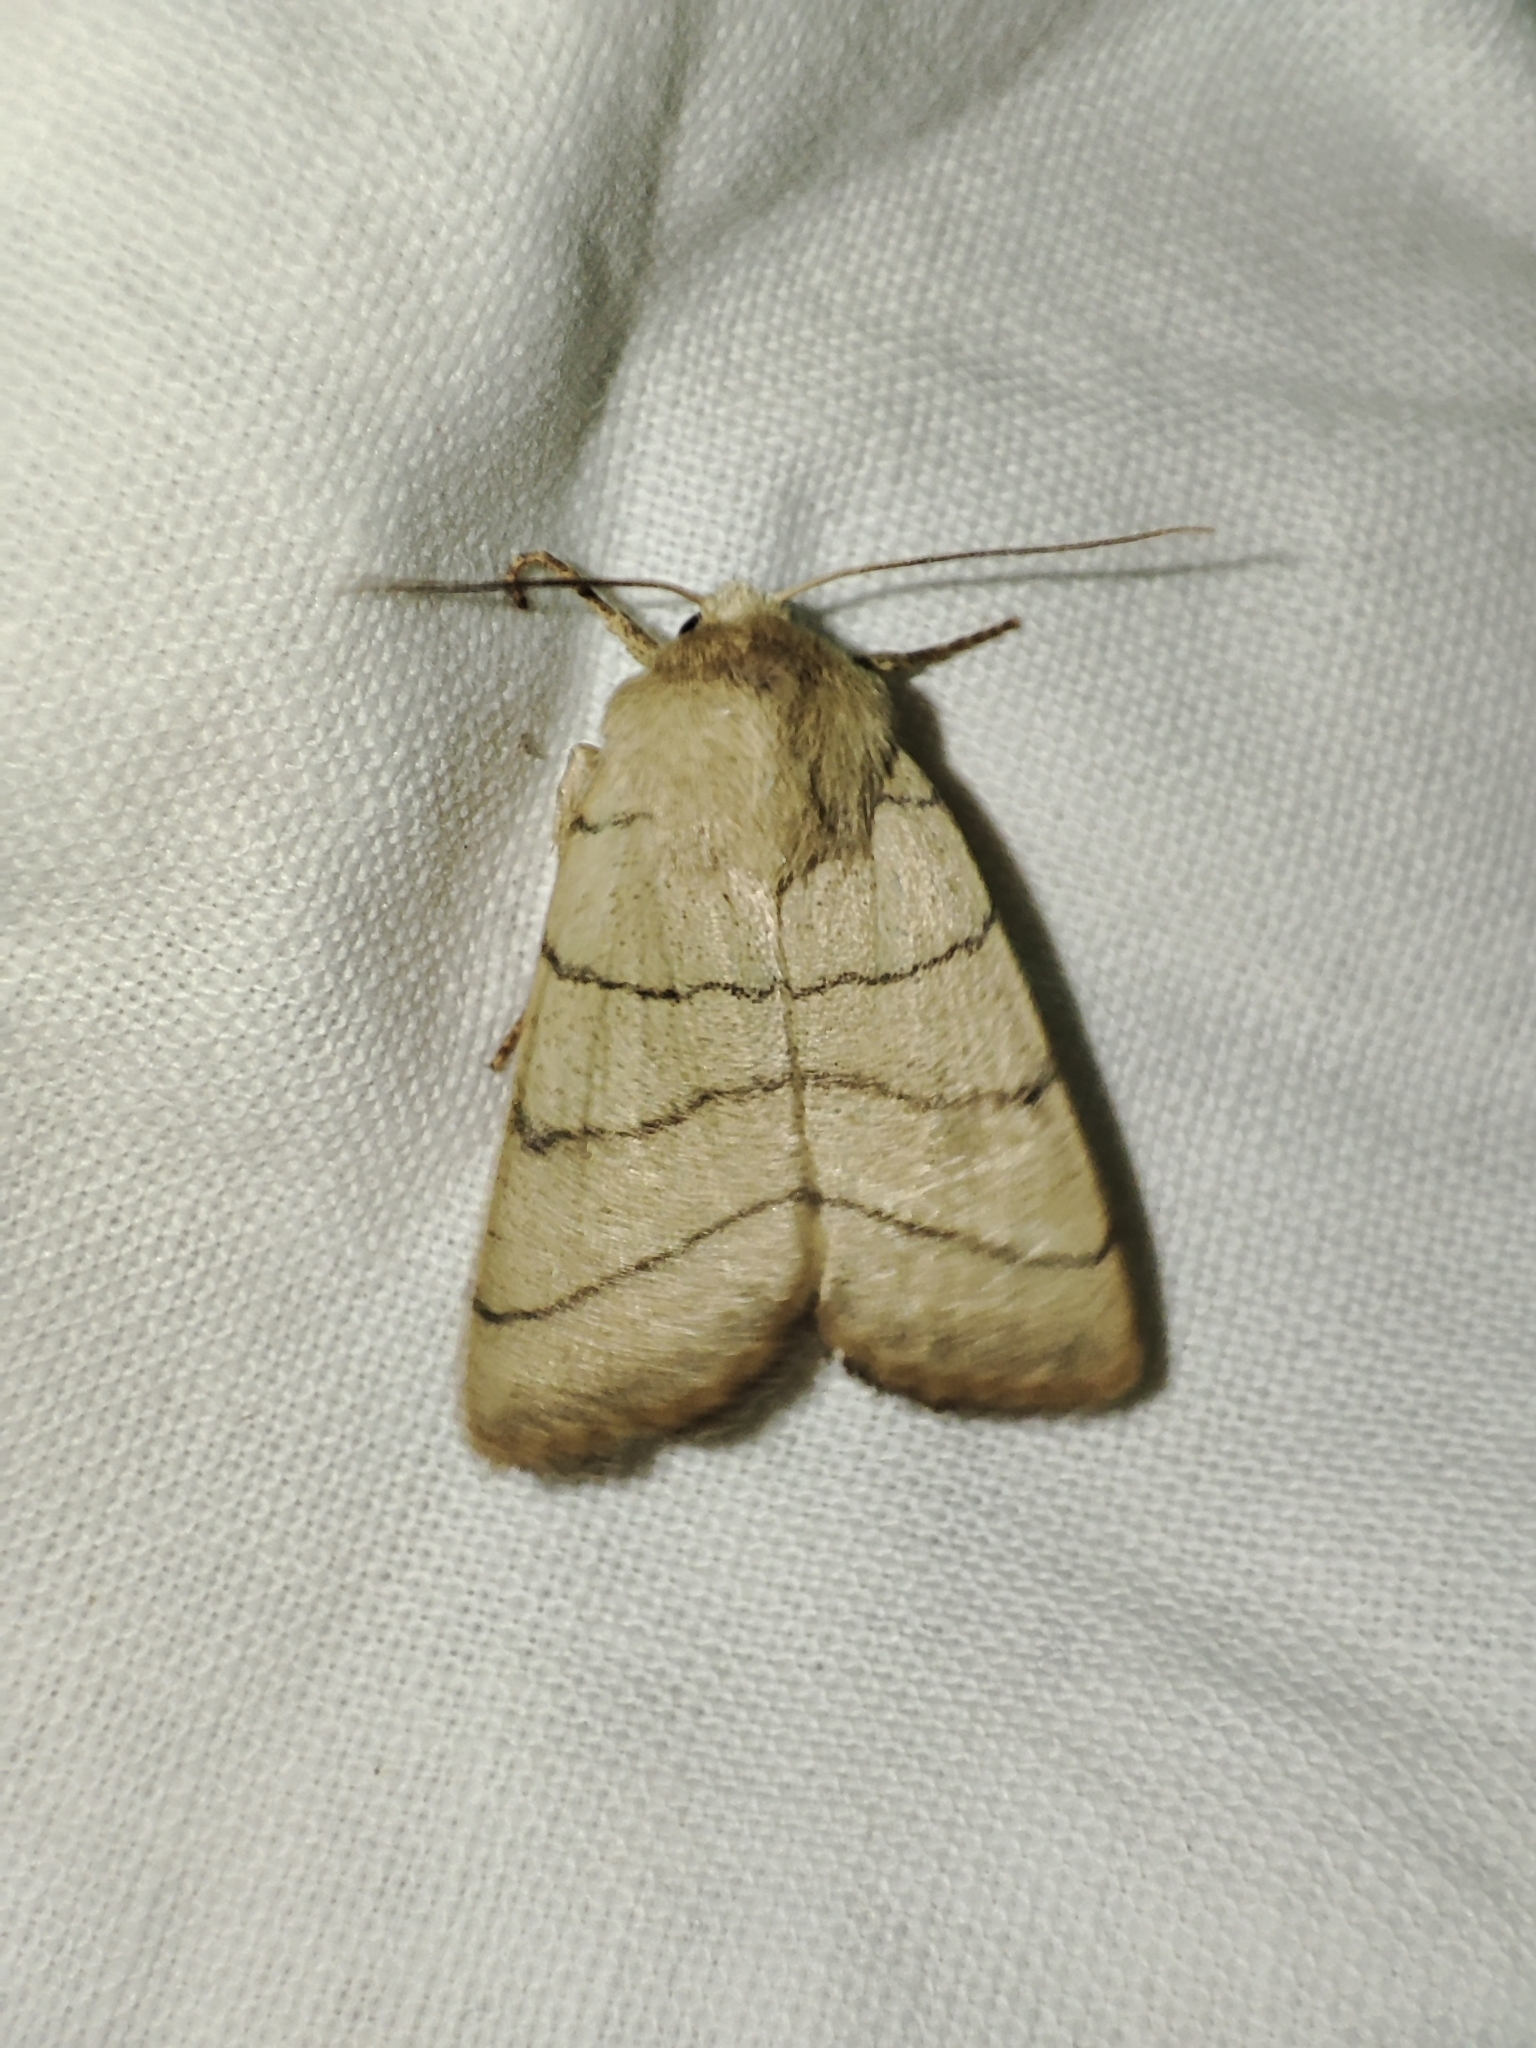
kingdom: Animalia
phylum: Arthropoda
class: Insecta
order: Lepidoptera
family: Noctuidae
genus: Charanyca
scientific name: Charanyca trigrammica
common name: Treble lines
